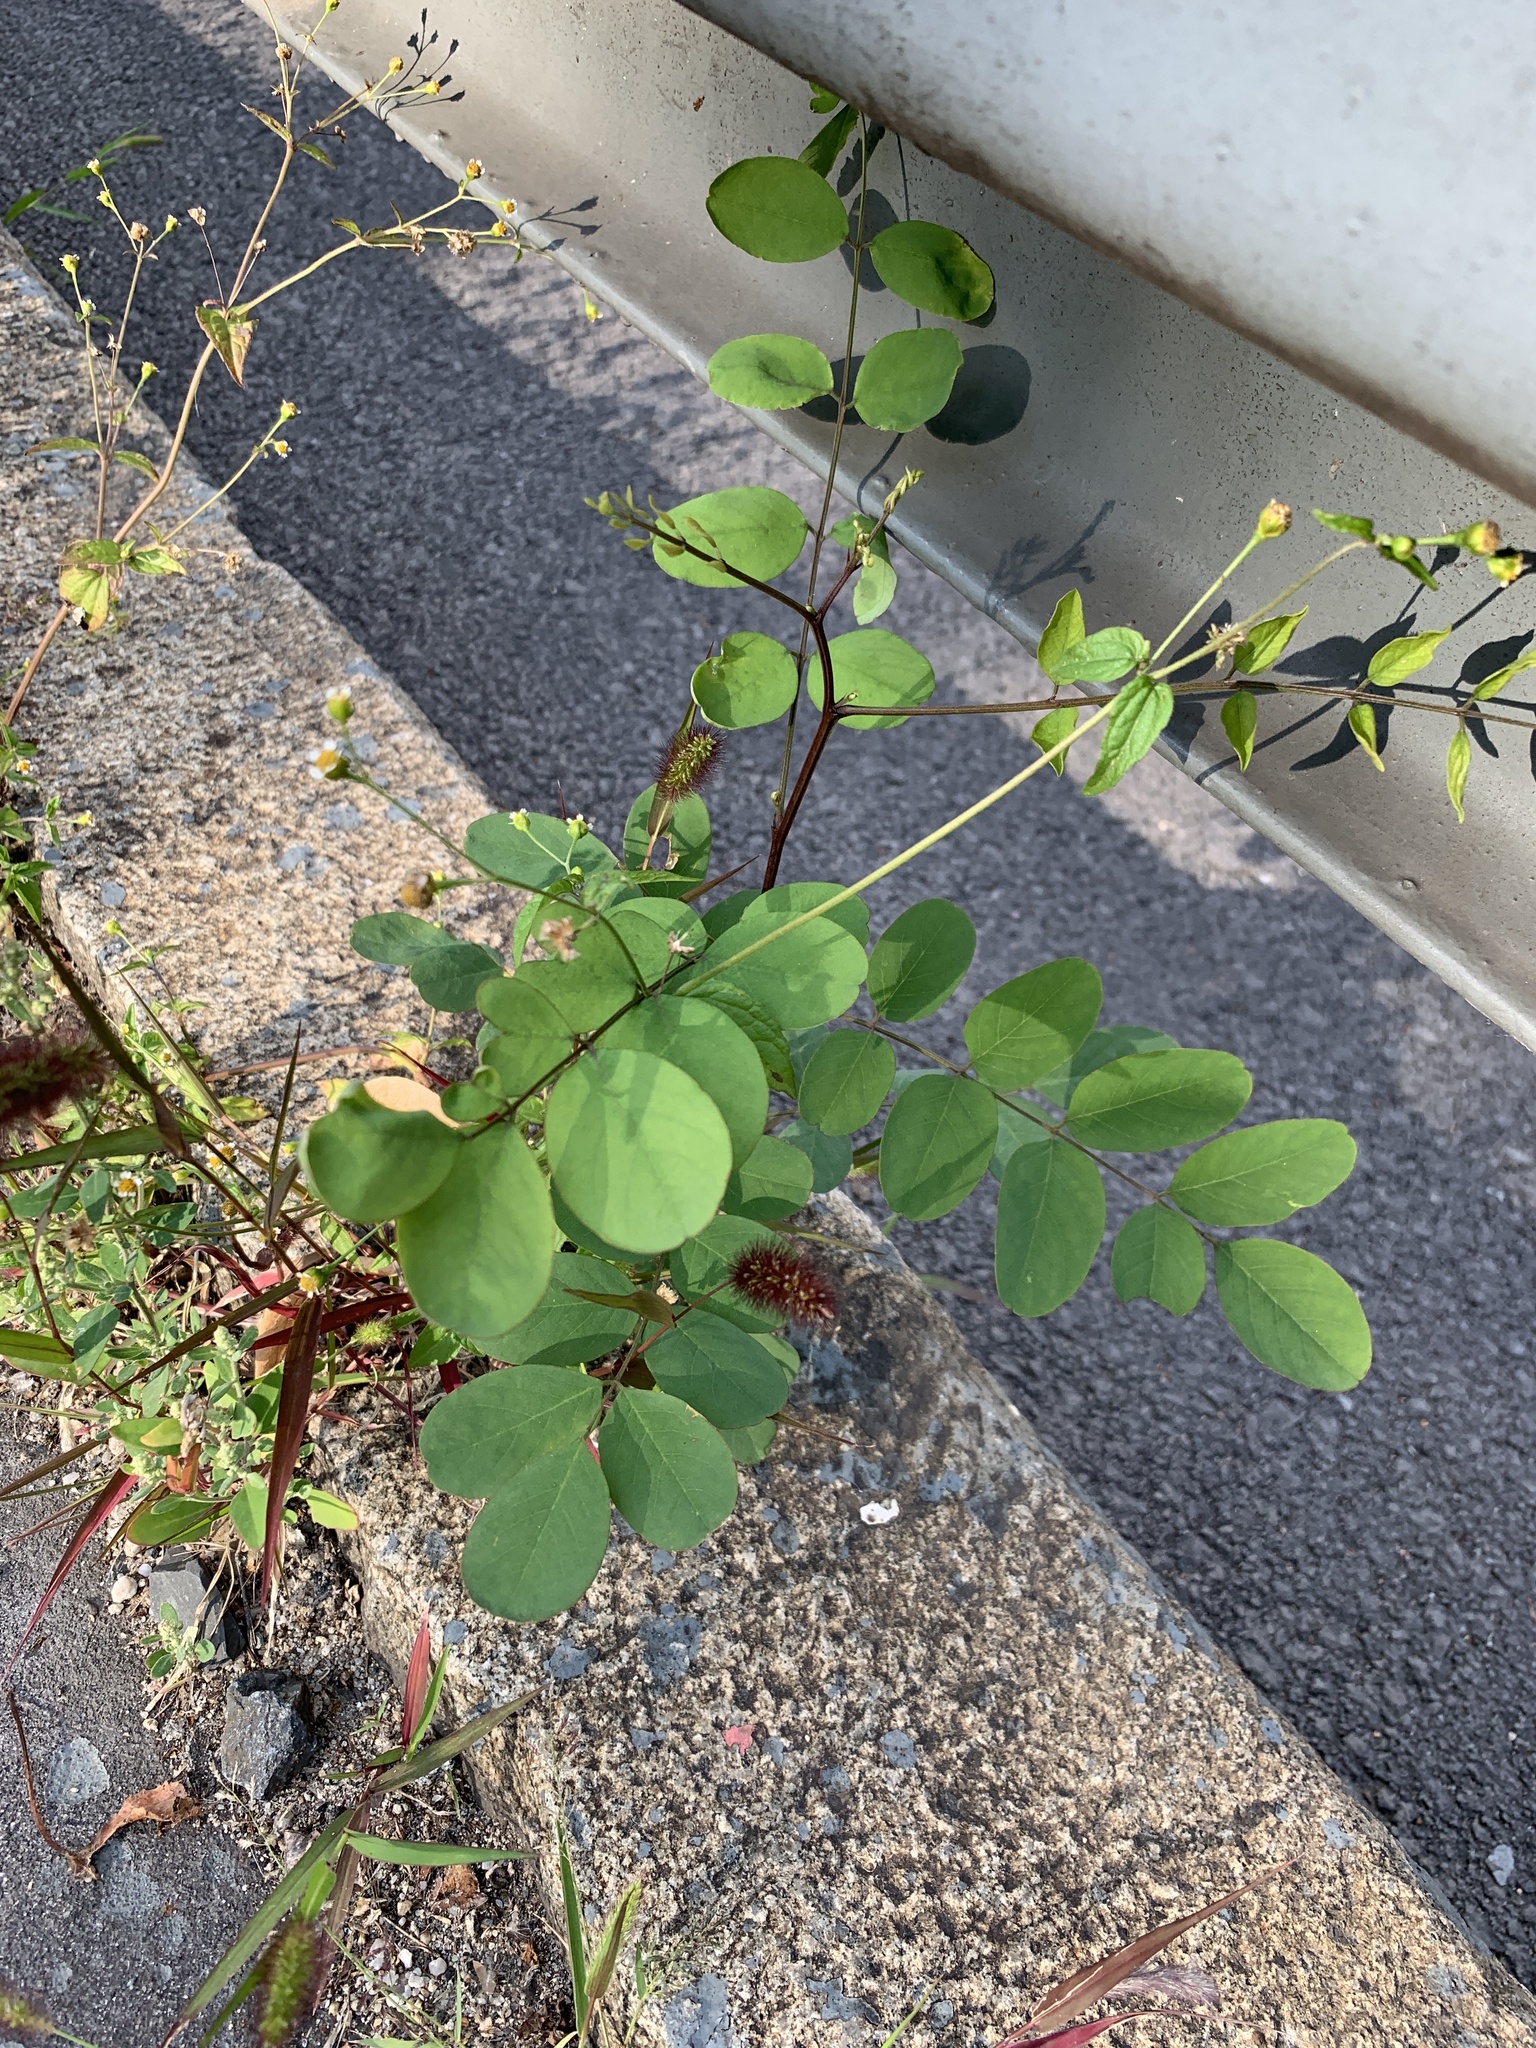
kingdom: Plantae
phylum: Tracheophyta
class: Magnoliopsida
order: Fabales
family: Fabaceae
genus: Robinia
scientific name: Robinia pseudoacacia
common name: Black locust
